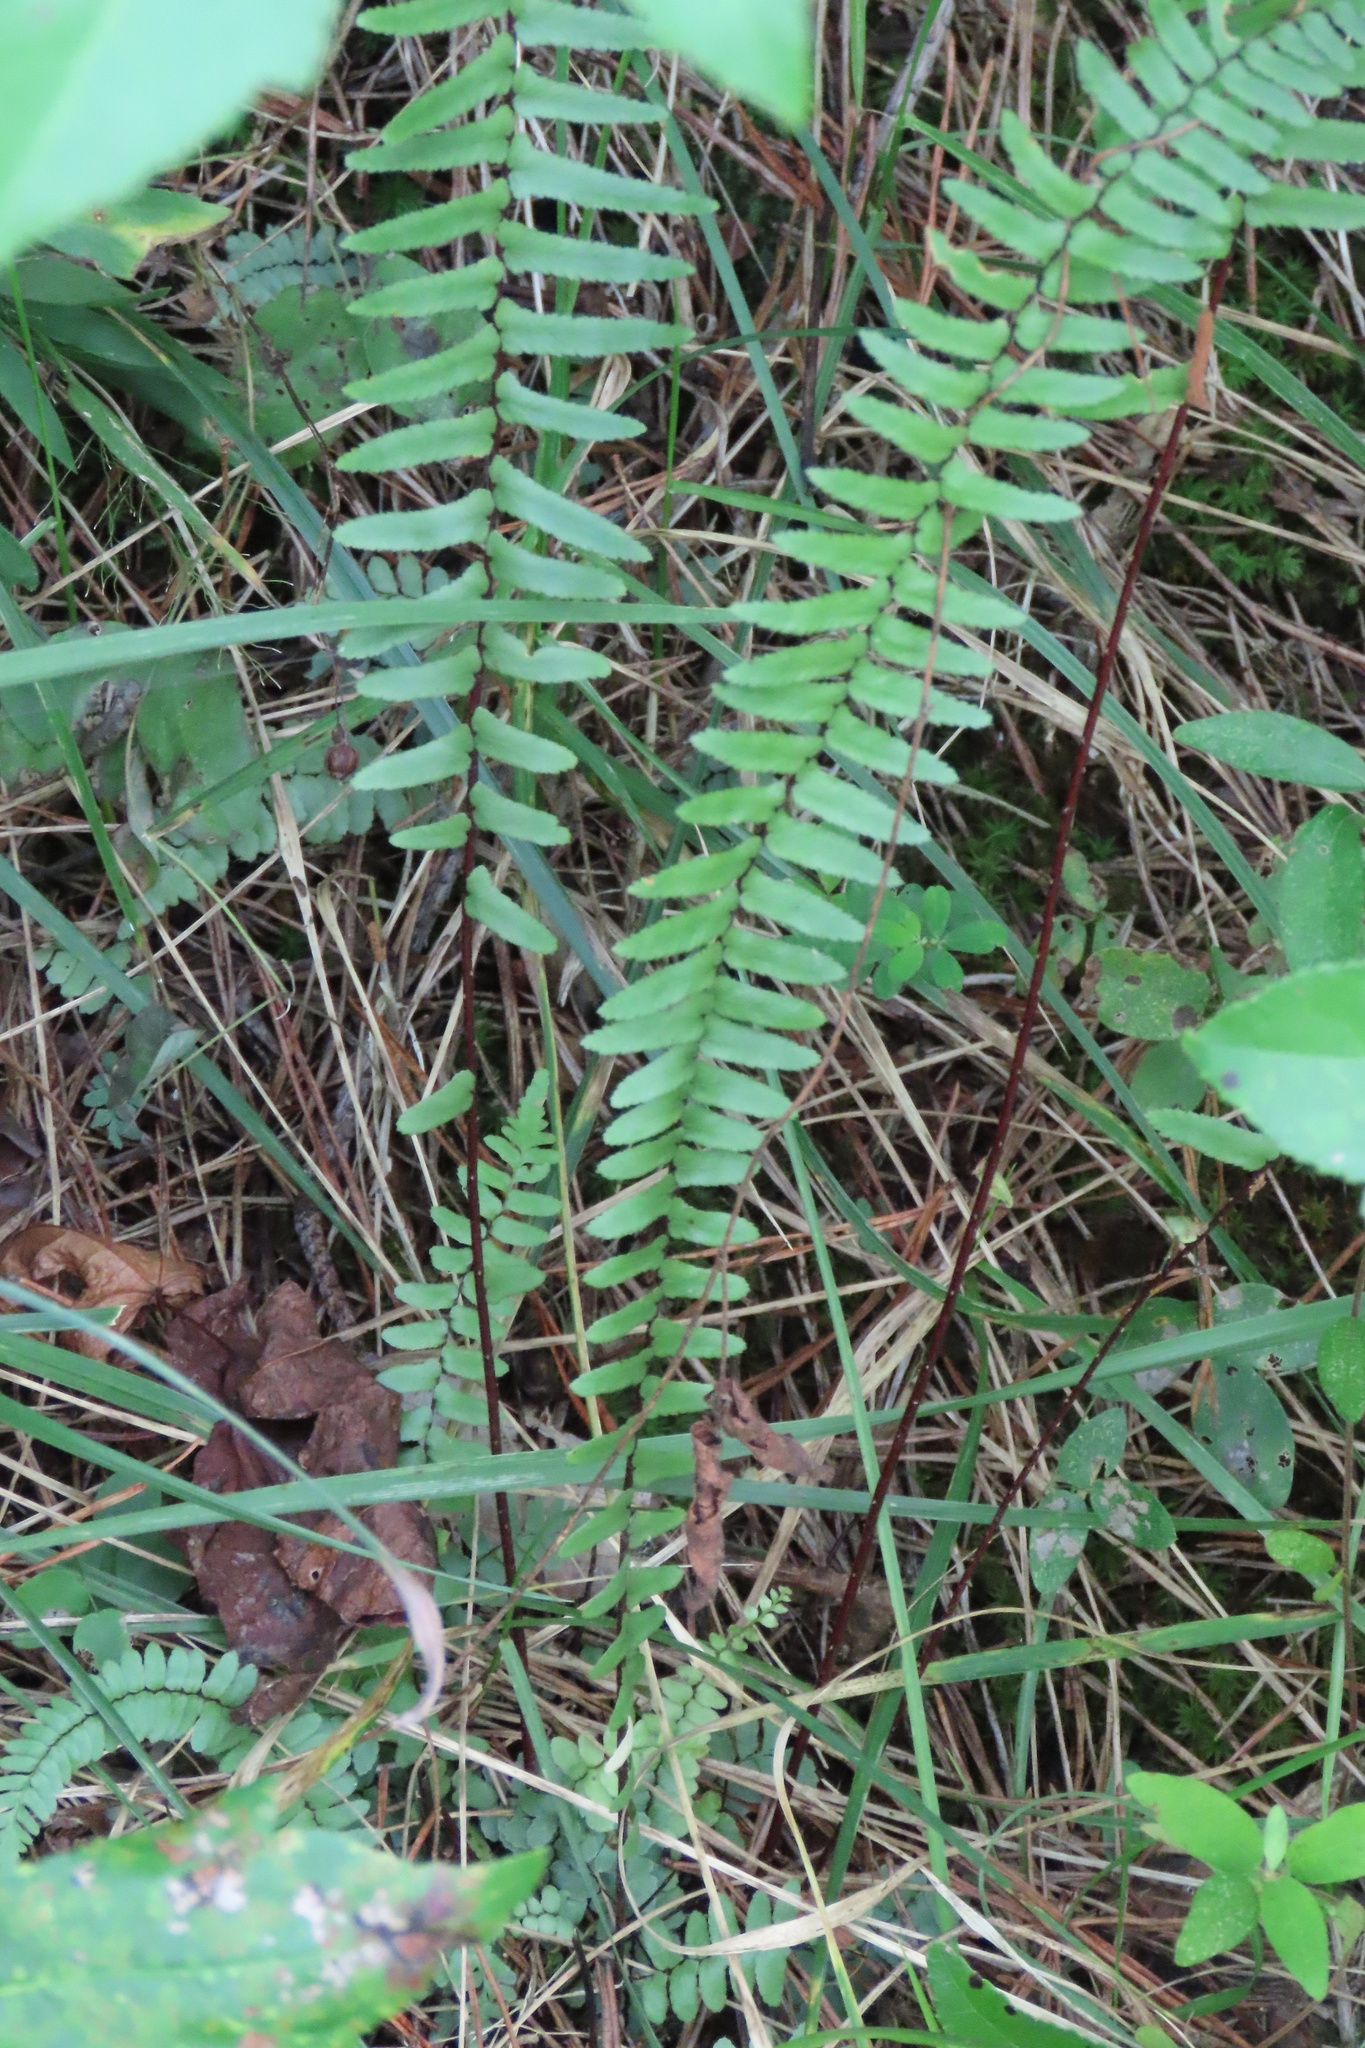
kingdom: Plantae
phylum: Tracheophyta
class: Polypodiopsida
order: Polypodiales
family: Aspleniaceae
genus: Asplenium
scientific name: Asplenium platyneuron
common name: Ebony spleenwort
